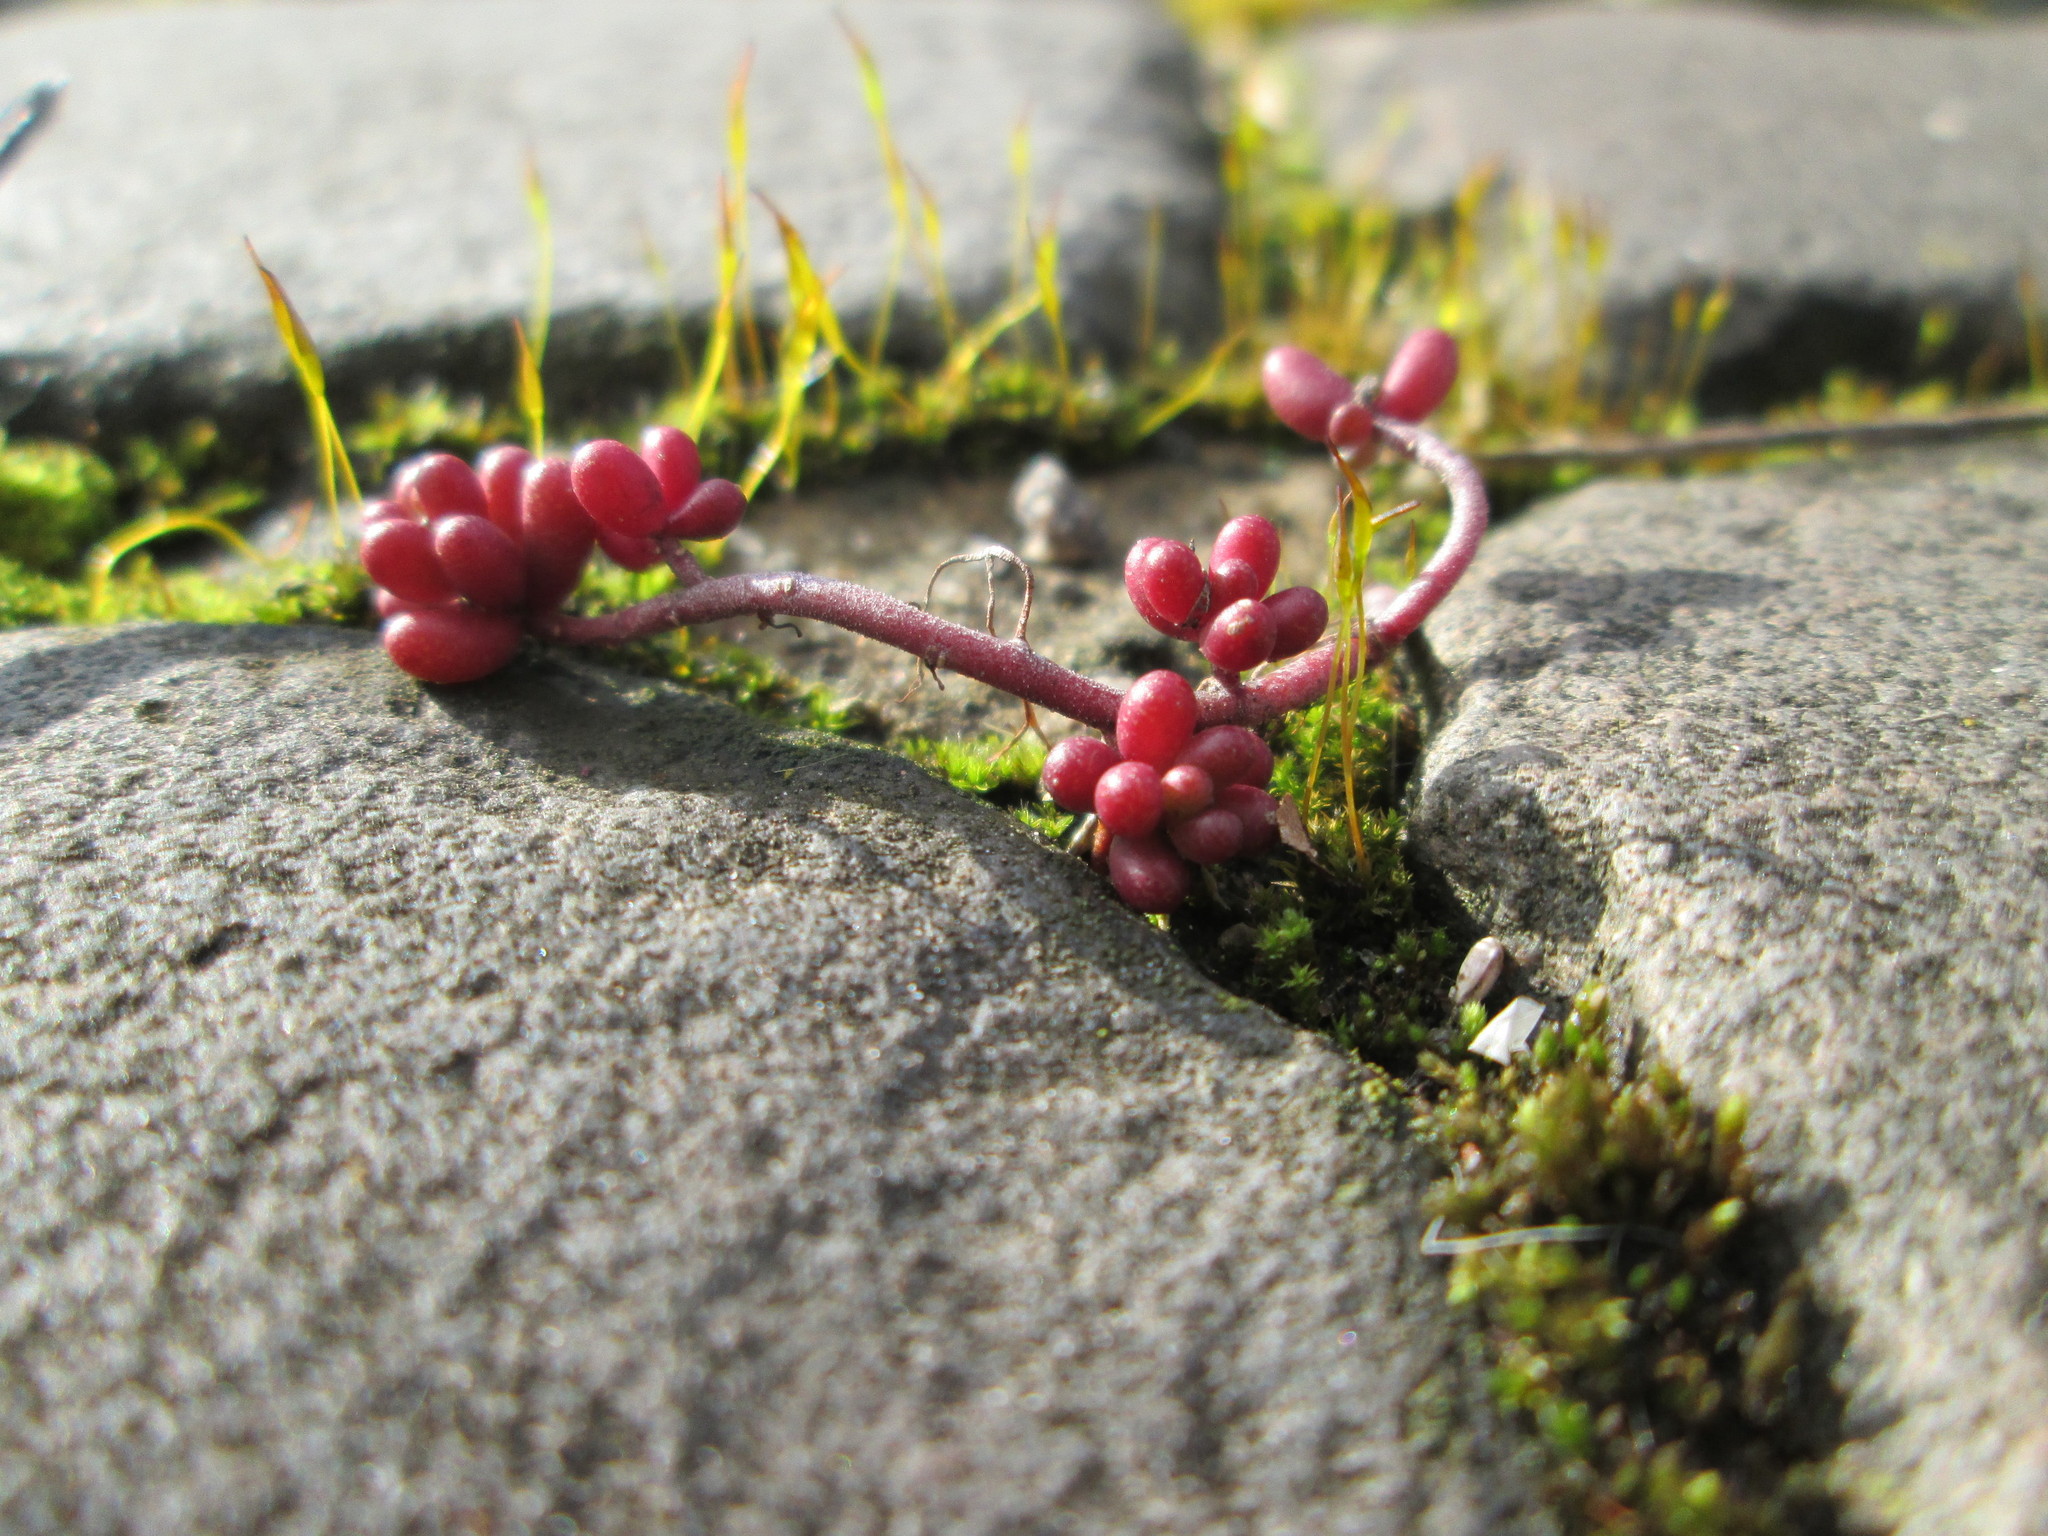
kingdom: Plantae
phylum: Tracheophyta
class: Magnoliopsida
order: Saxifragales
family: Crassulaceae
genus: Sedum
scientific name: Sedum album
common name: White stonecrop
